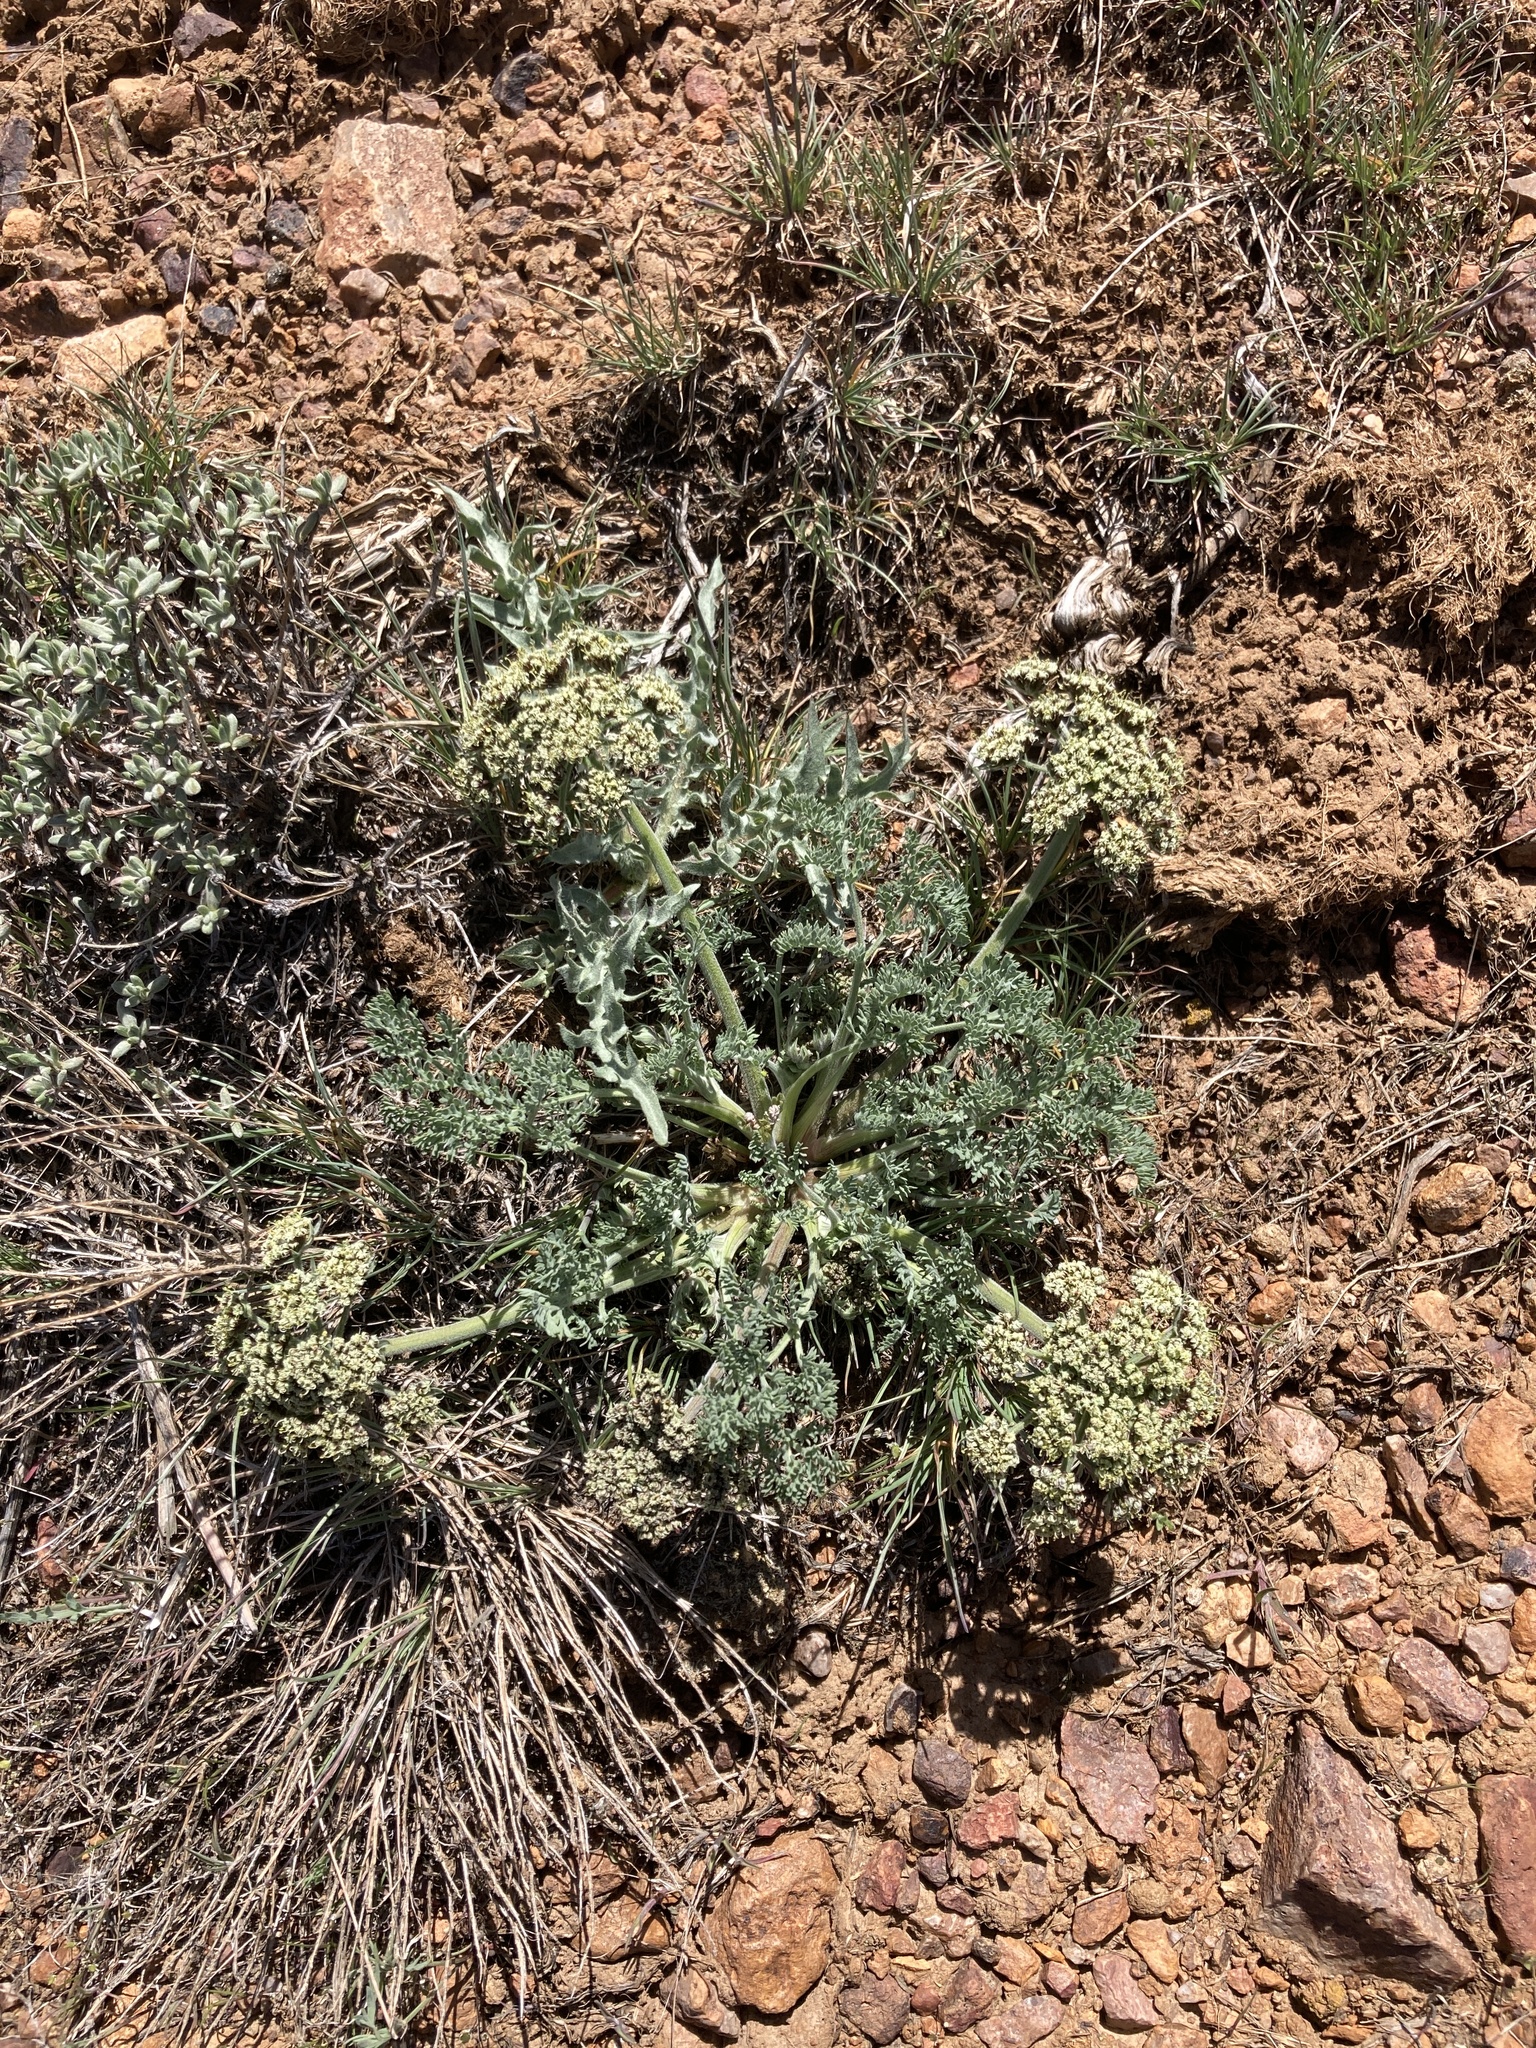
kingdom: Plantae
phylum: Tracheophyta
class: Magnoliopsida
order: Apiales
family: Apiaceae
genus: Lomatium
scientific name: Lomatium macrocarpum
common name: Big-seed biscuitroot
